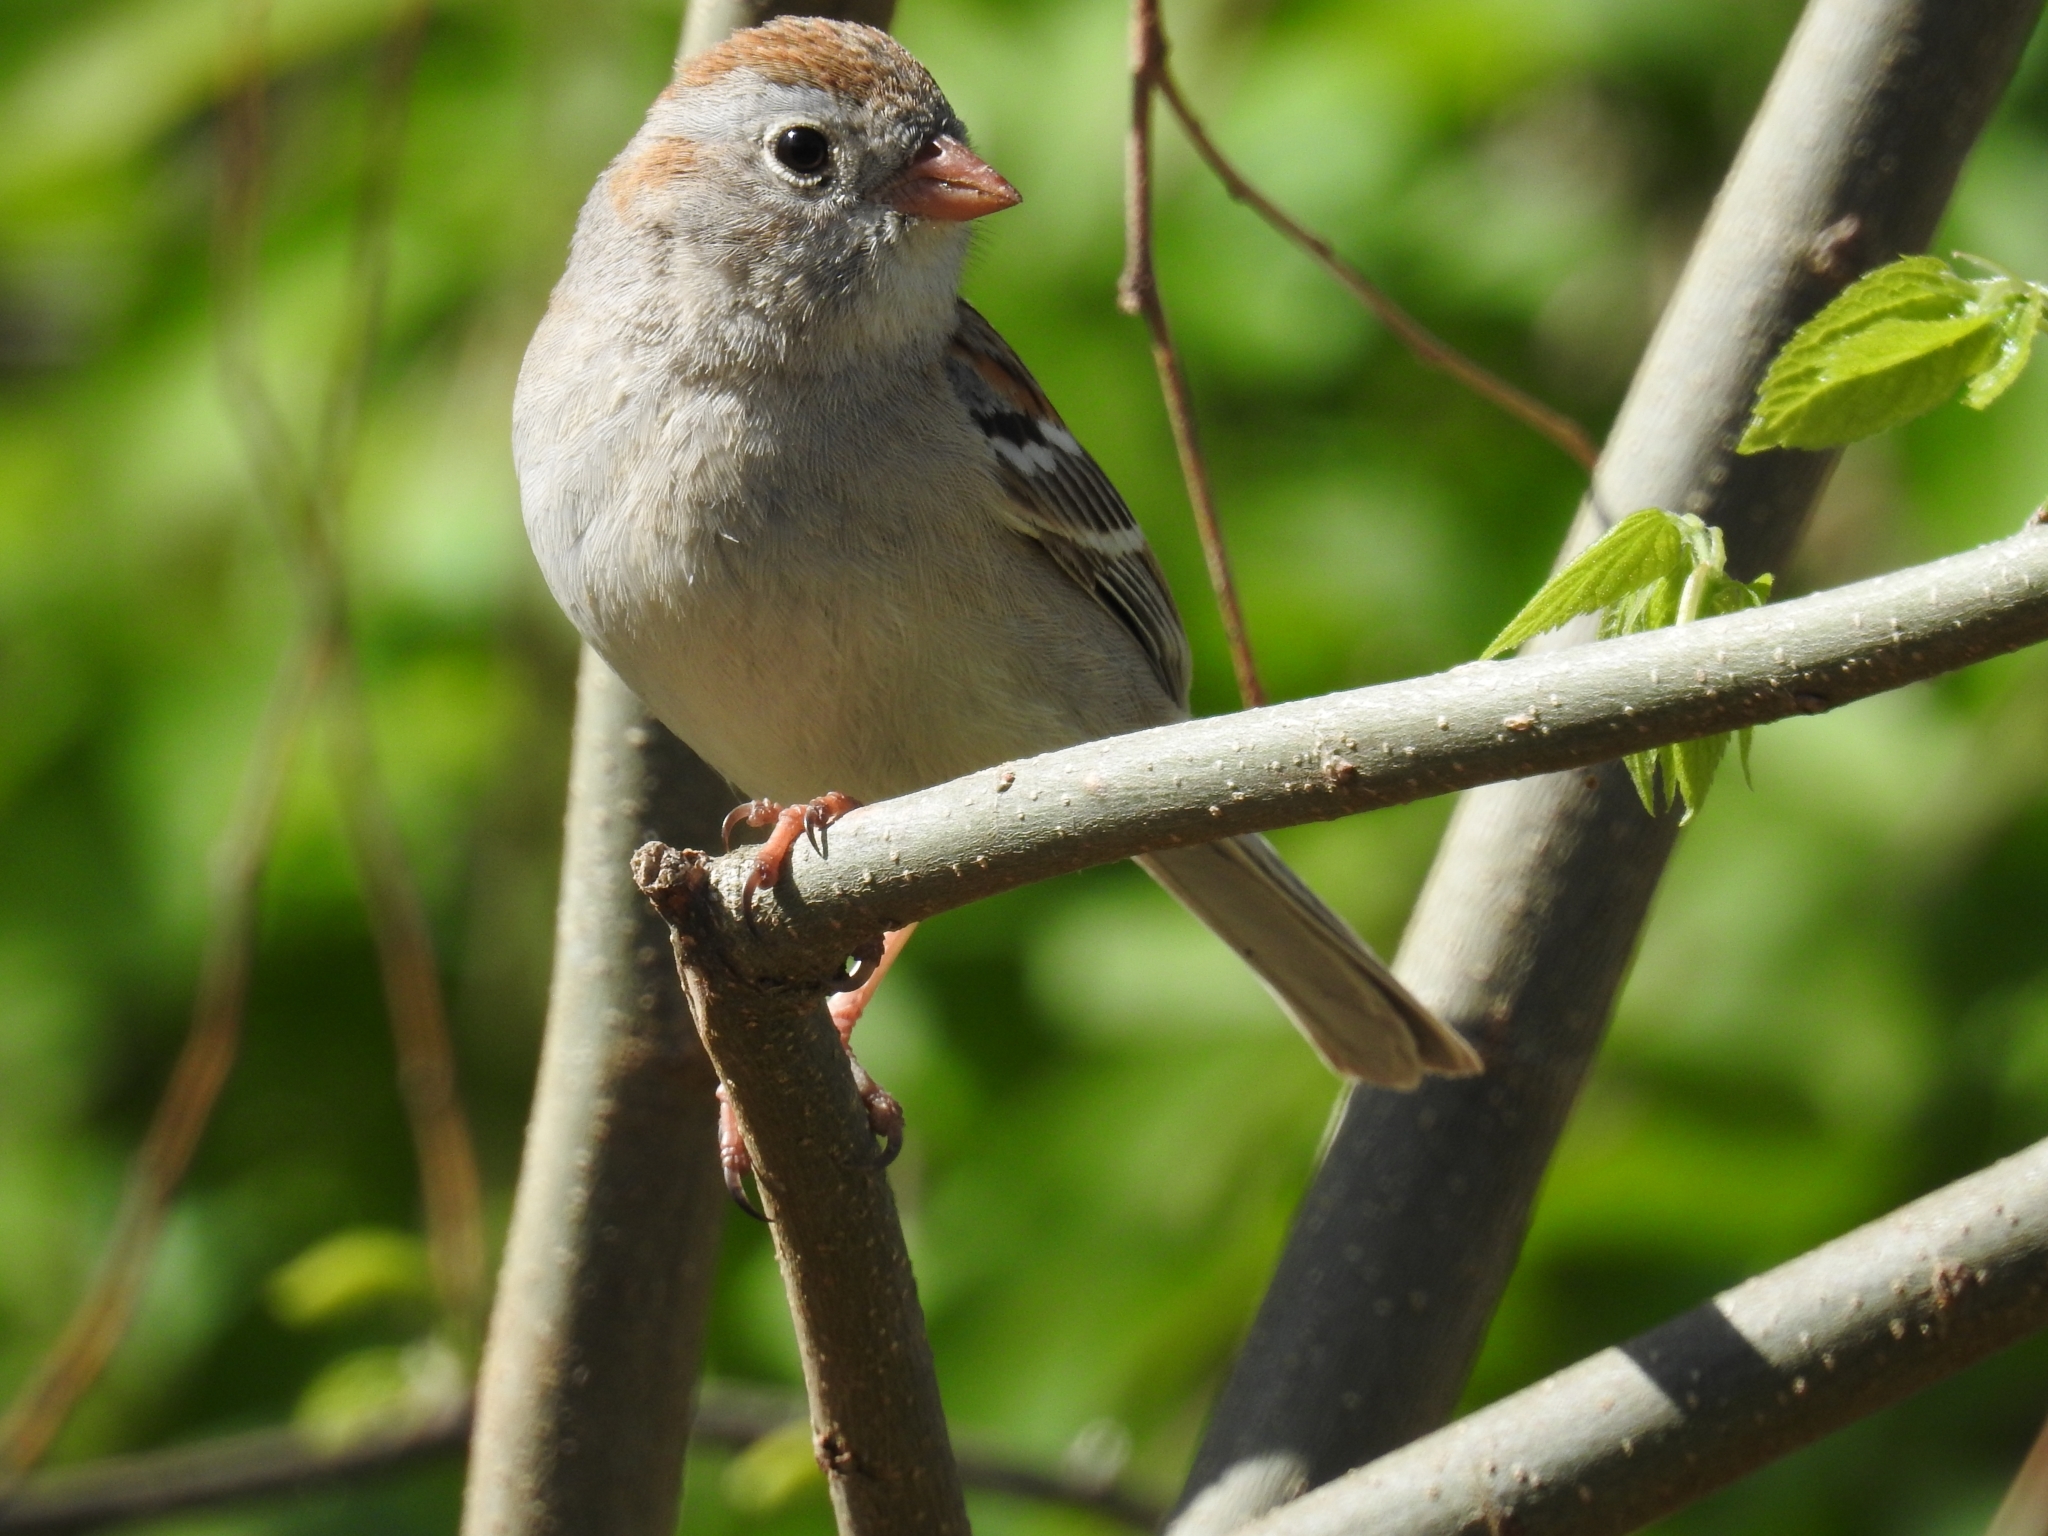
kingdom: Animalia
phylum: Chordata
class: Aves
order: Passeriformes
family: Passerellidae
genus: Spizella
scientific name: Spizella pusilla
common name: Field sparrow
